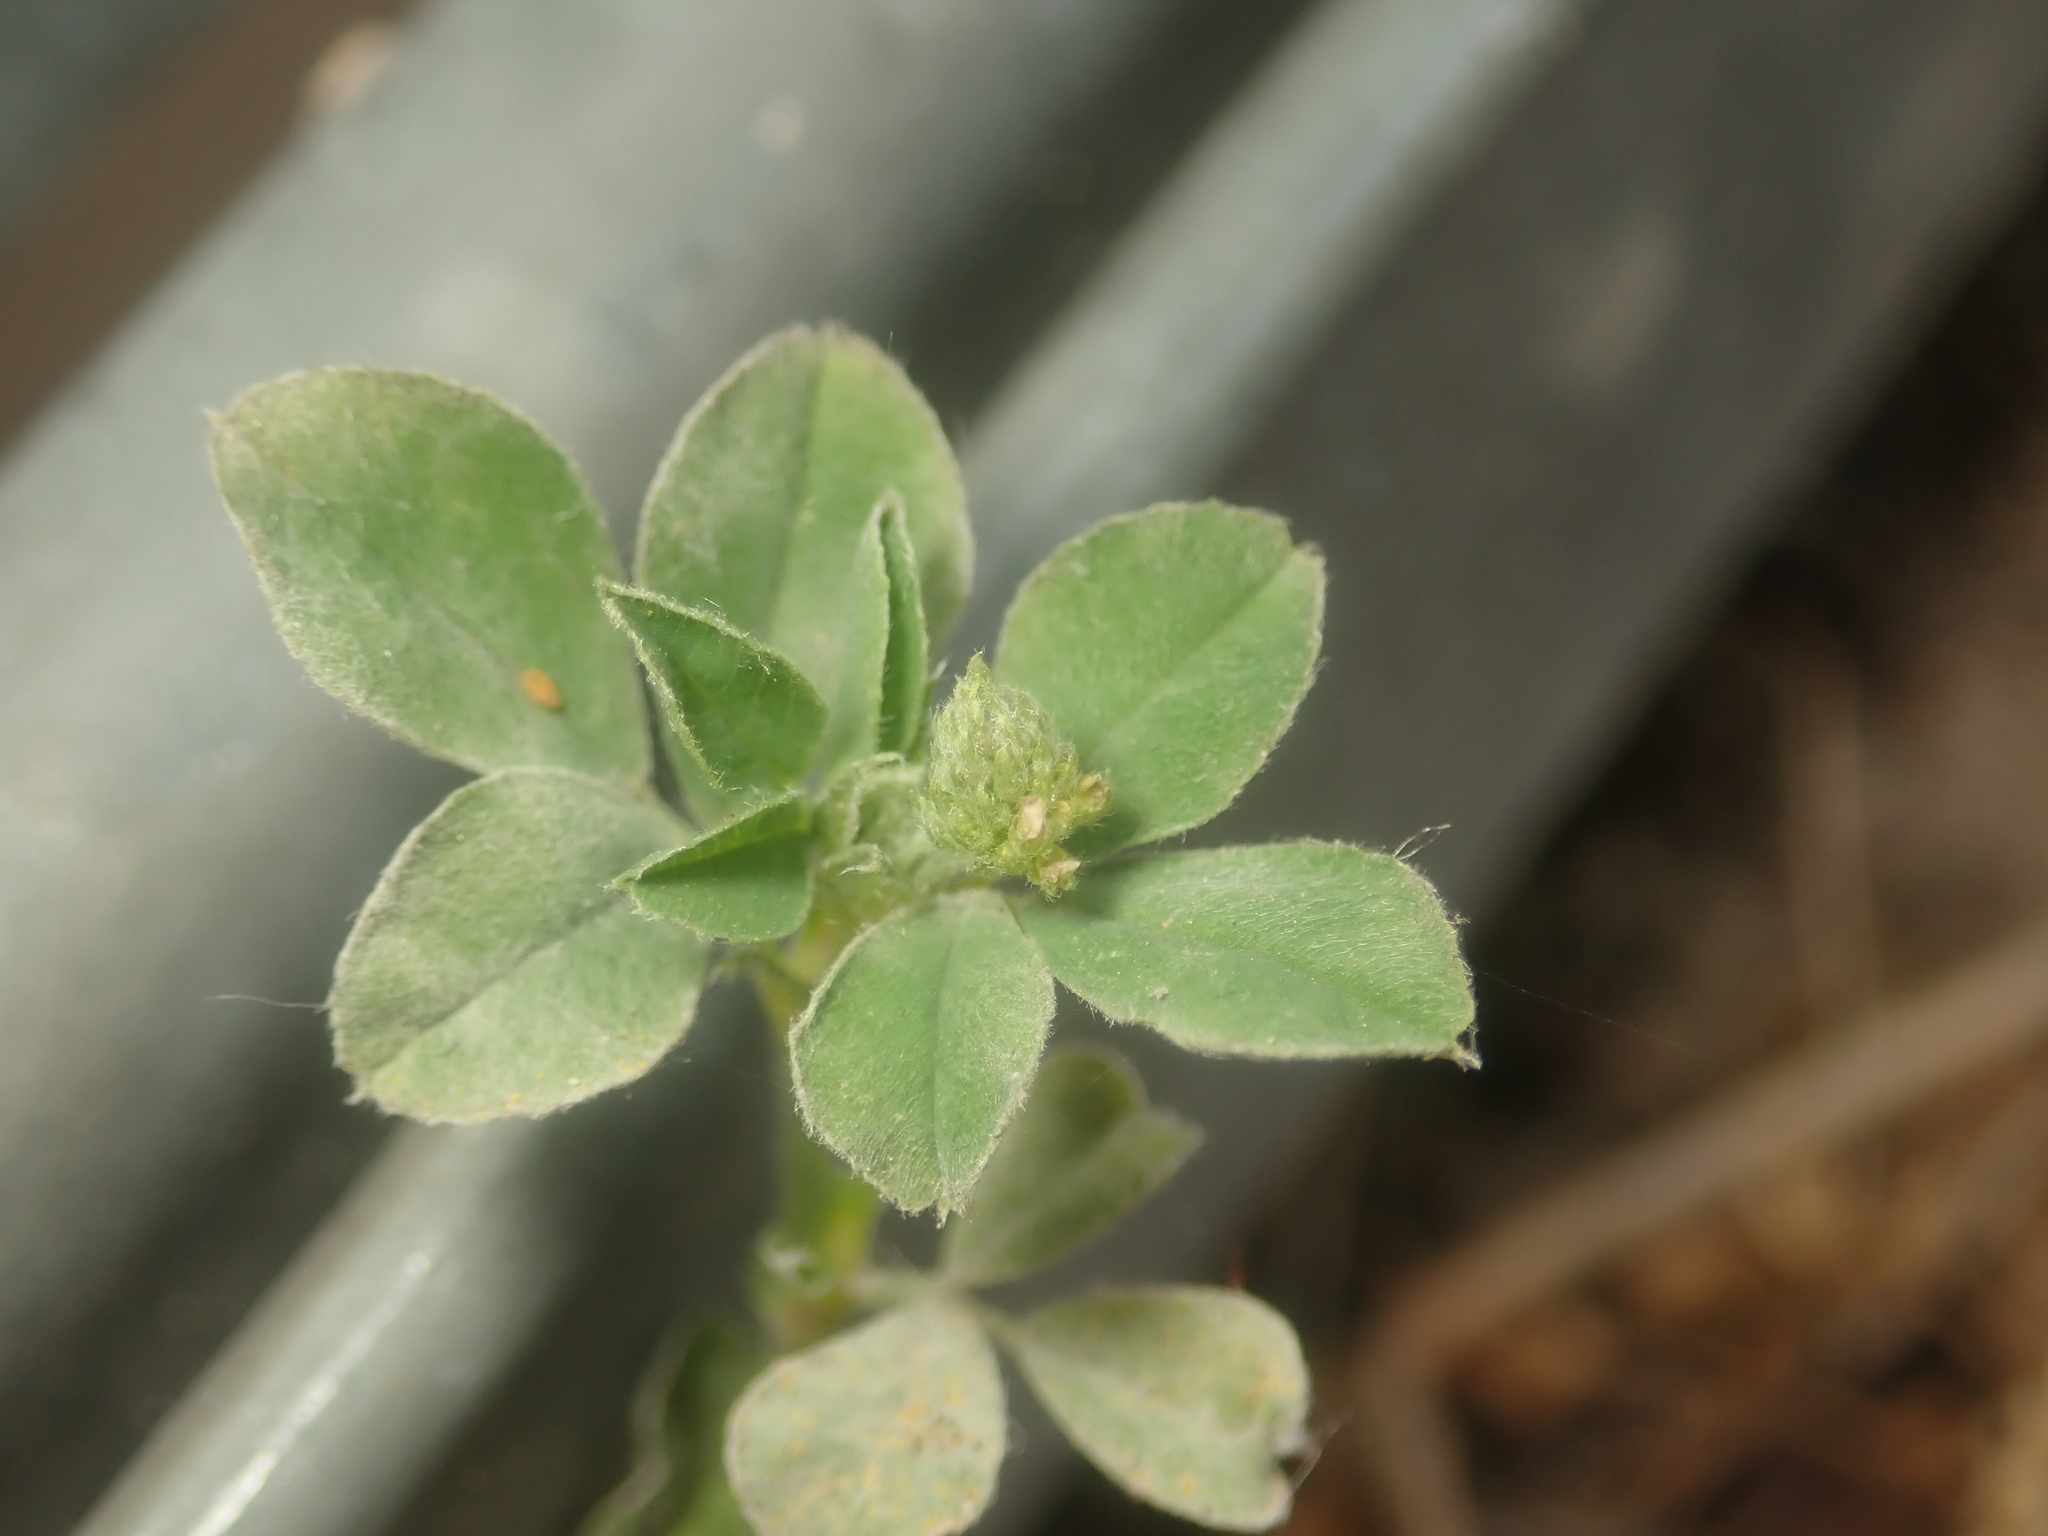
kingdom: Plantae
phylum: Tracheophyta
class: Magnoliopsida
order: Fabales
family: Fabaceae
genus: Medicago
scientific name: Medicago lupulina
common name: Black medick
